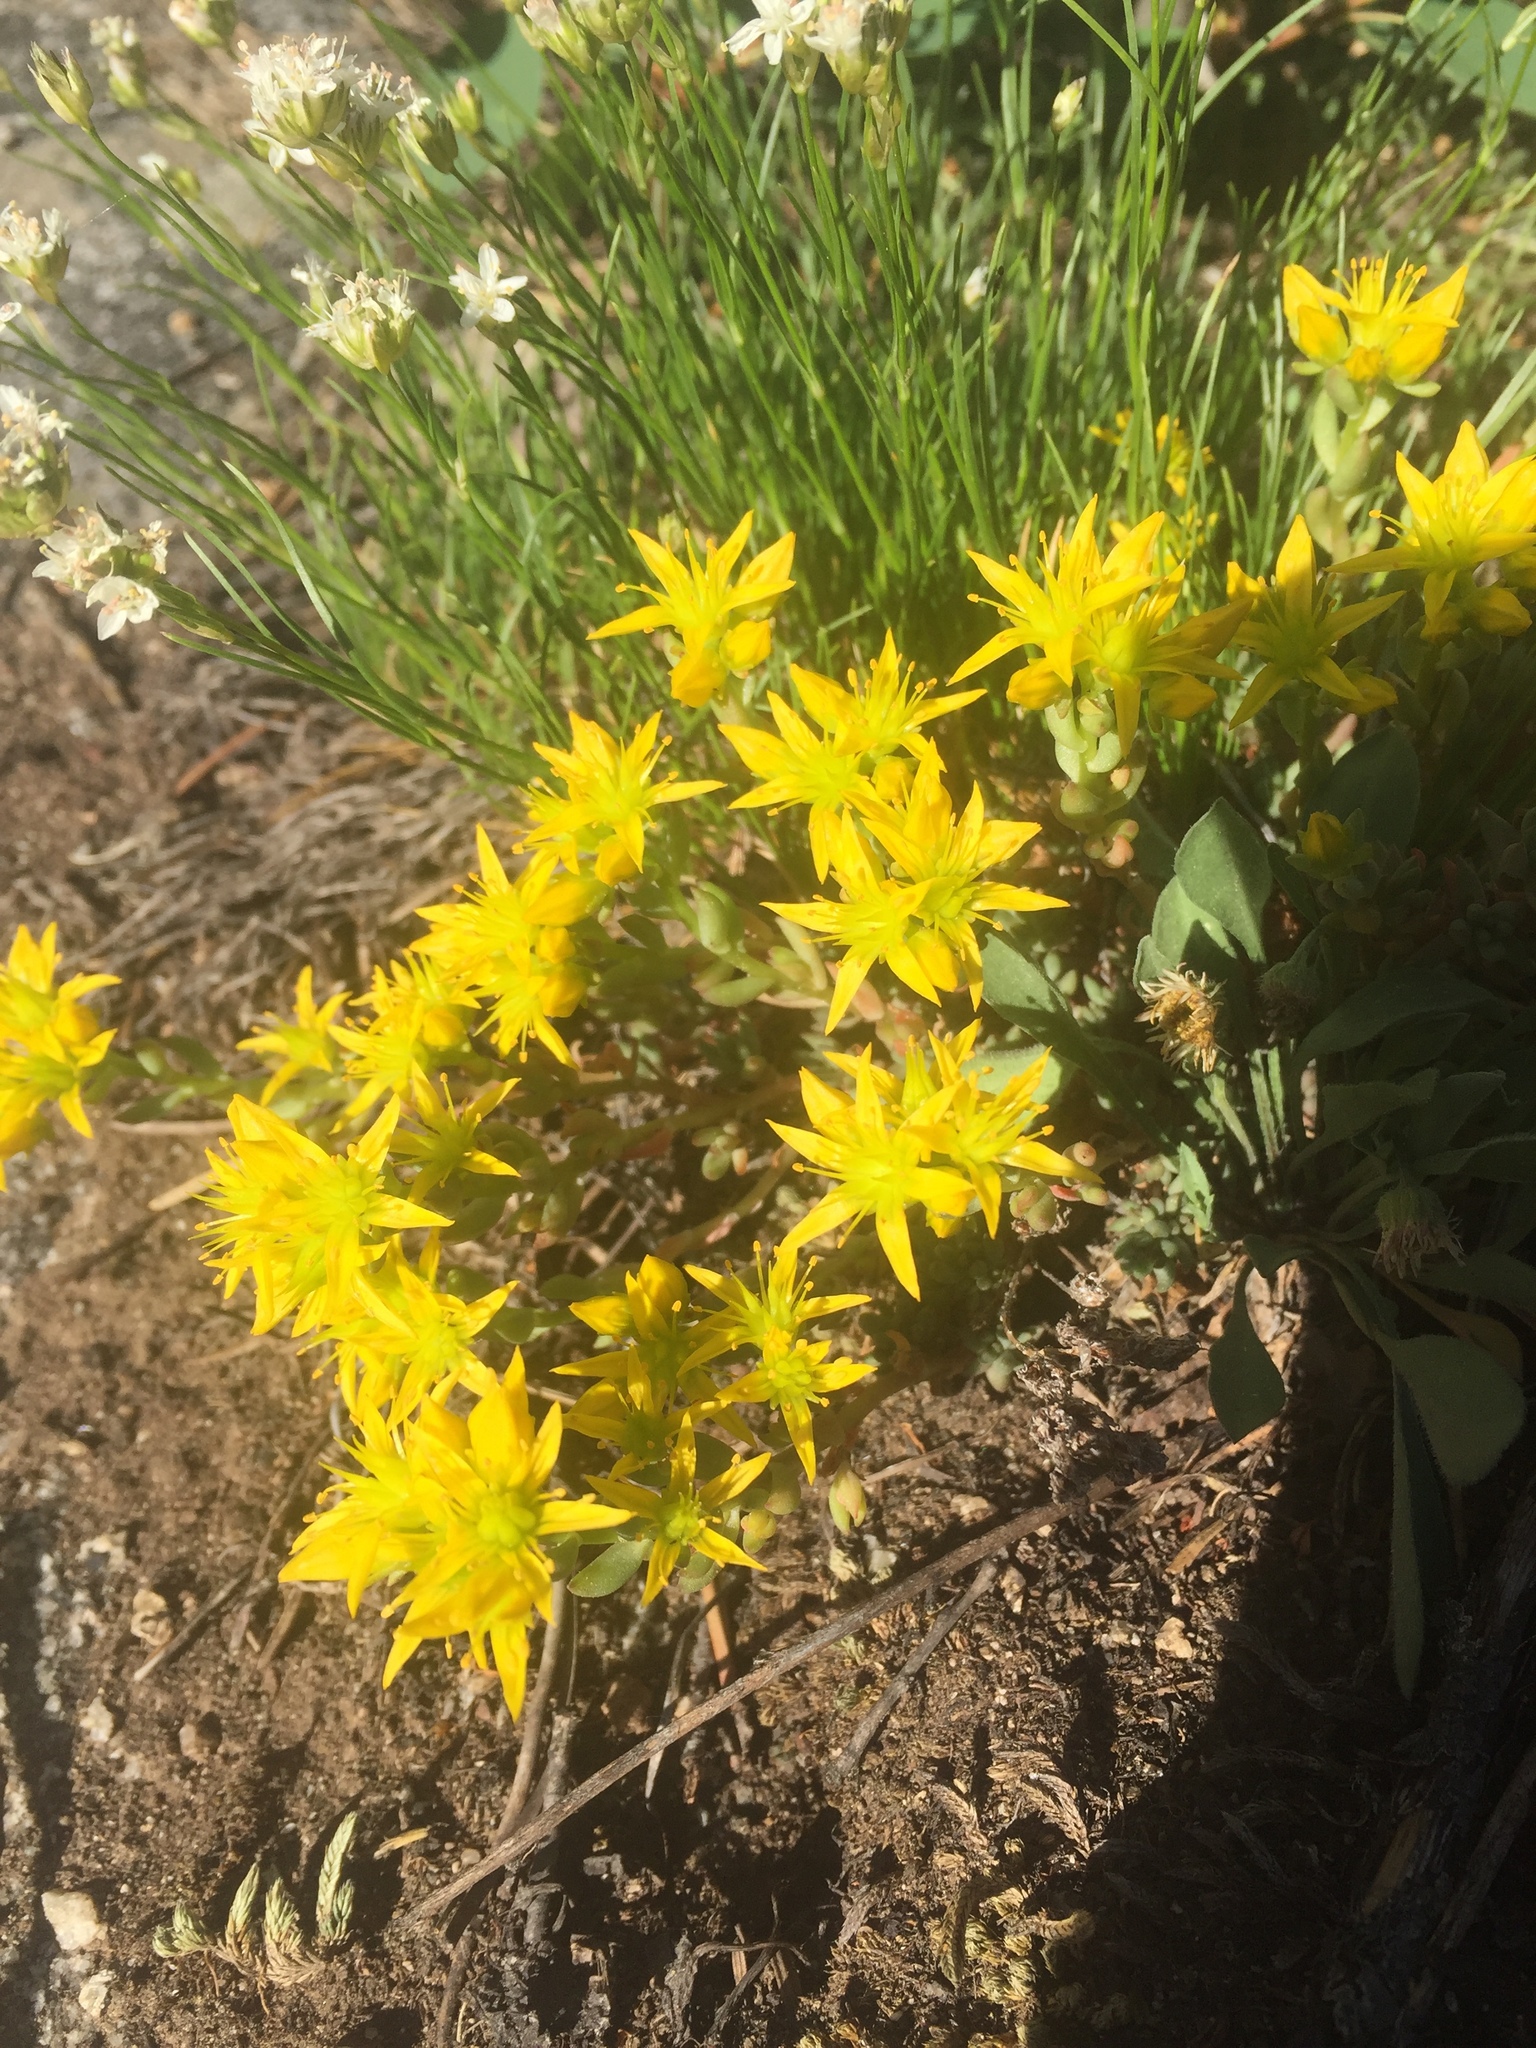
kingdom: Plantae
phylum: Tracheophyta
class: Magnoliopsida
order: Saxifragales
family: Crassulaceae
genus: Sedum
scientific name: Sedum lanceolatum
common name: Common stonecrop
